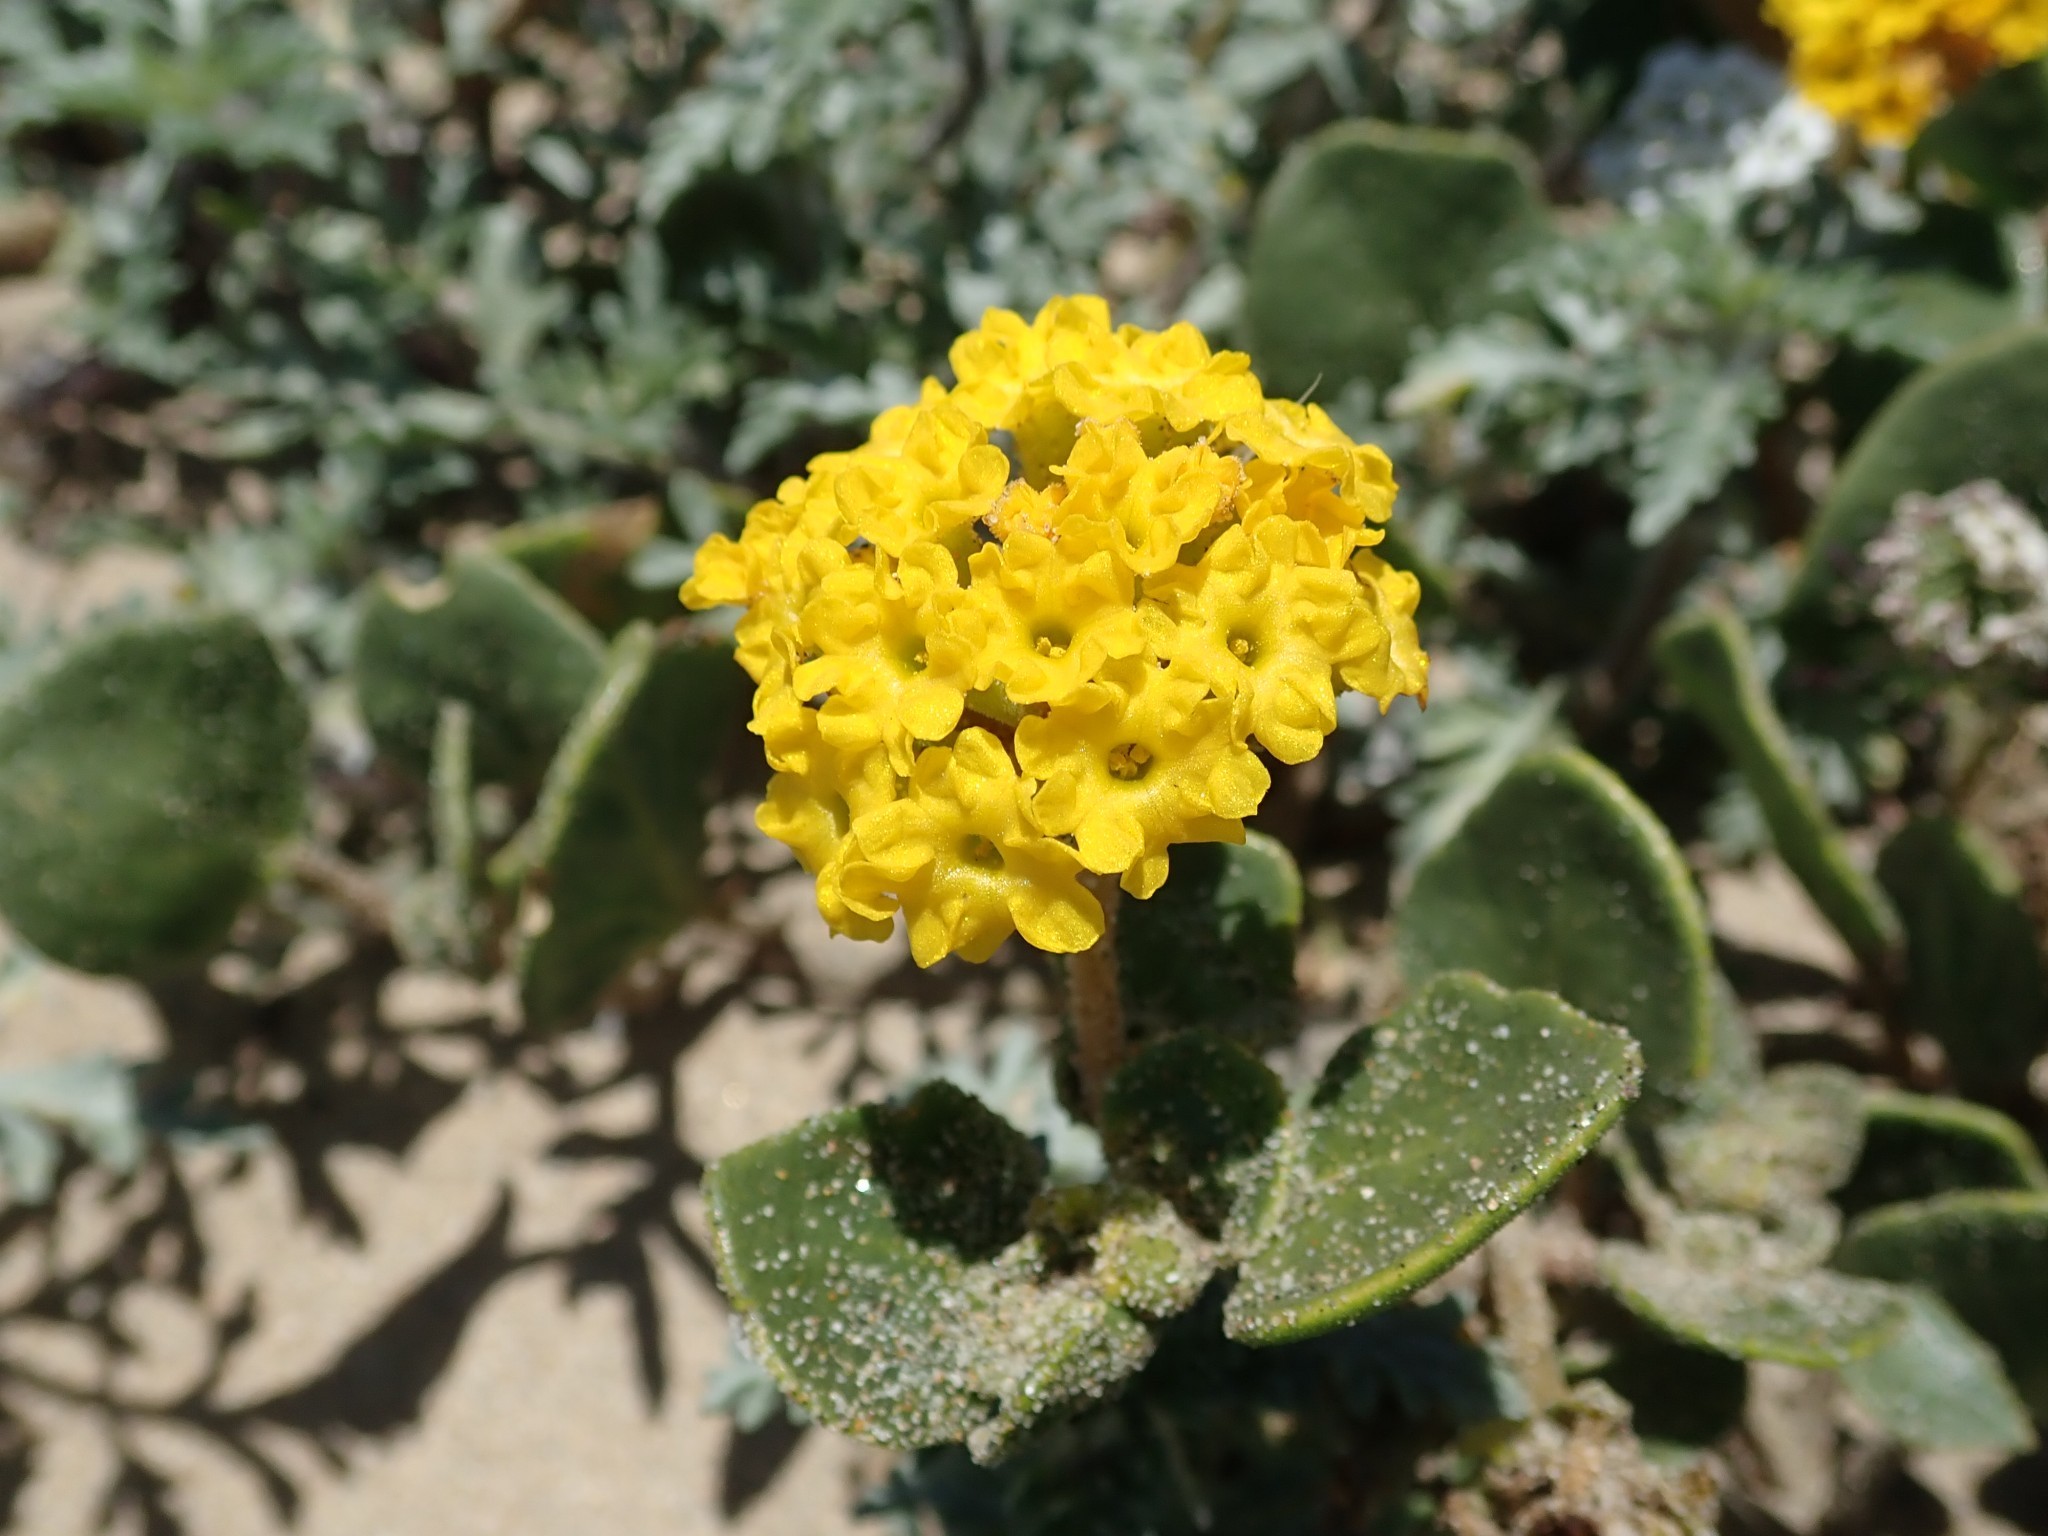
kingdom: Plantae
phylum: Tracheophyta
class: Magnoliopsida
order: Caryophyllales
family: Nyctaginaceae
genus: Abronia
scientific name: Abronia latifolia
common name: Yellow sand-verbena
